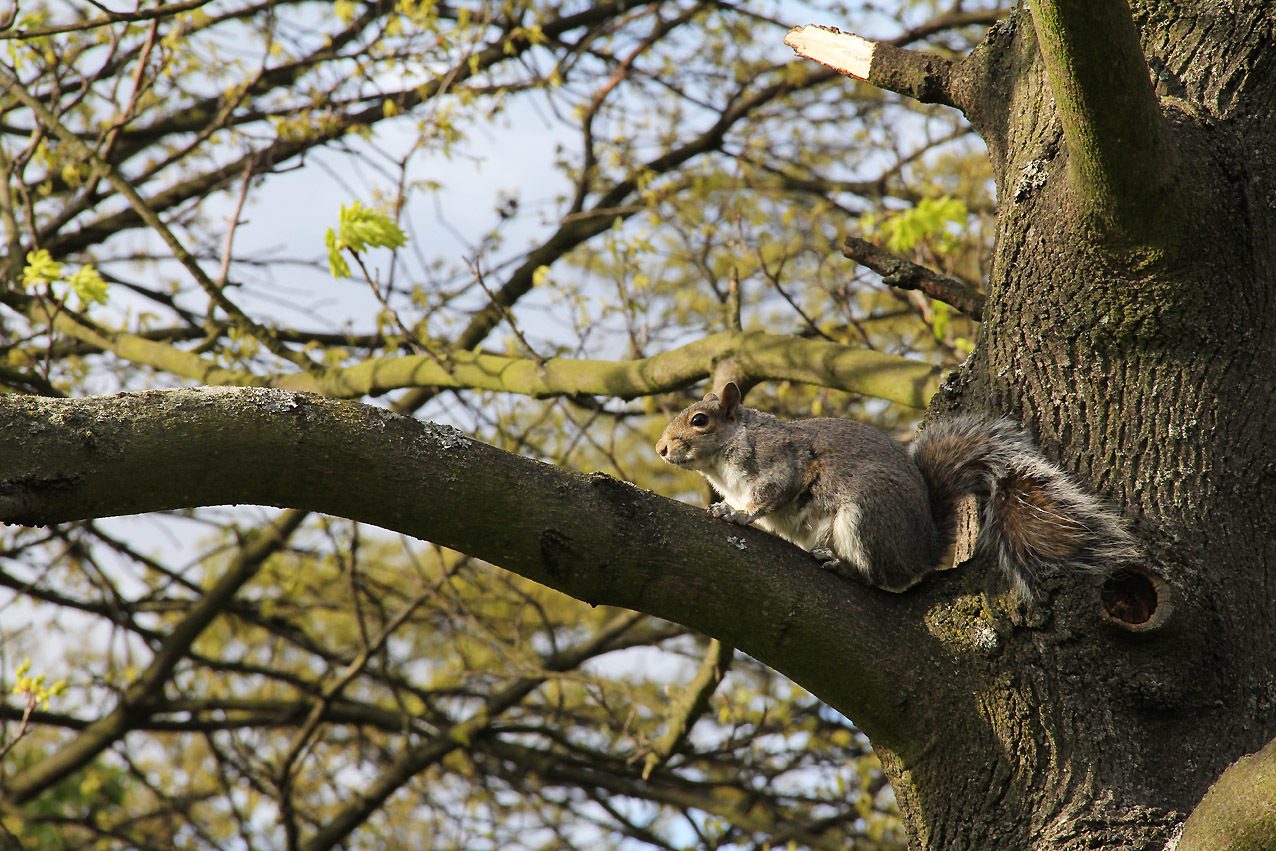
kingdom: Animalia
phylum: Chordata
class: Mammalia
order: Rodentia
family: Sciuridae
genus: Sciurus
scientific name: Sciurus carolinensis
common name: Eastern gray squirrel
